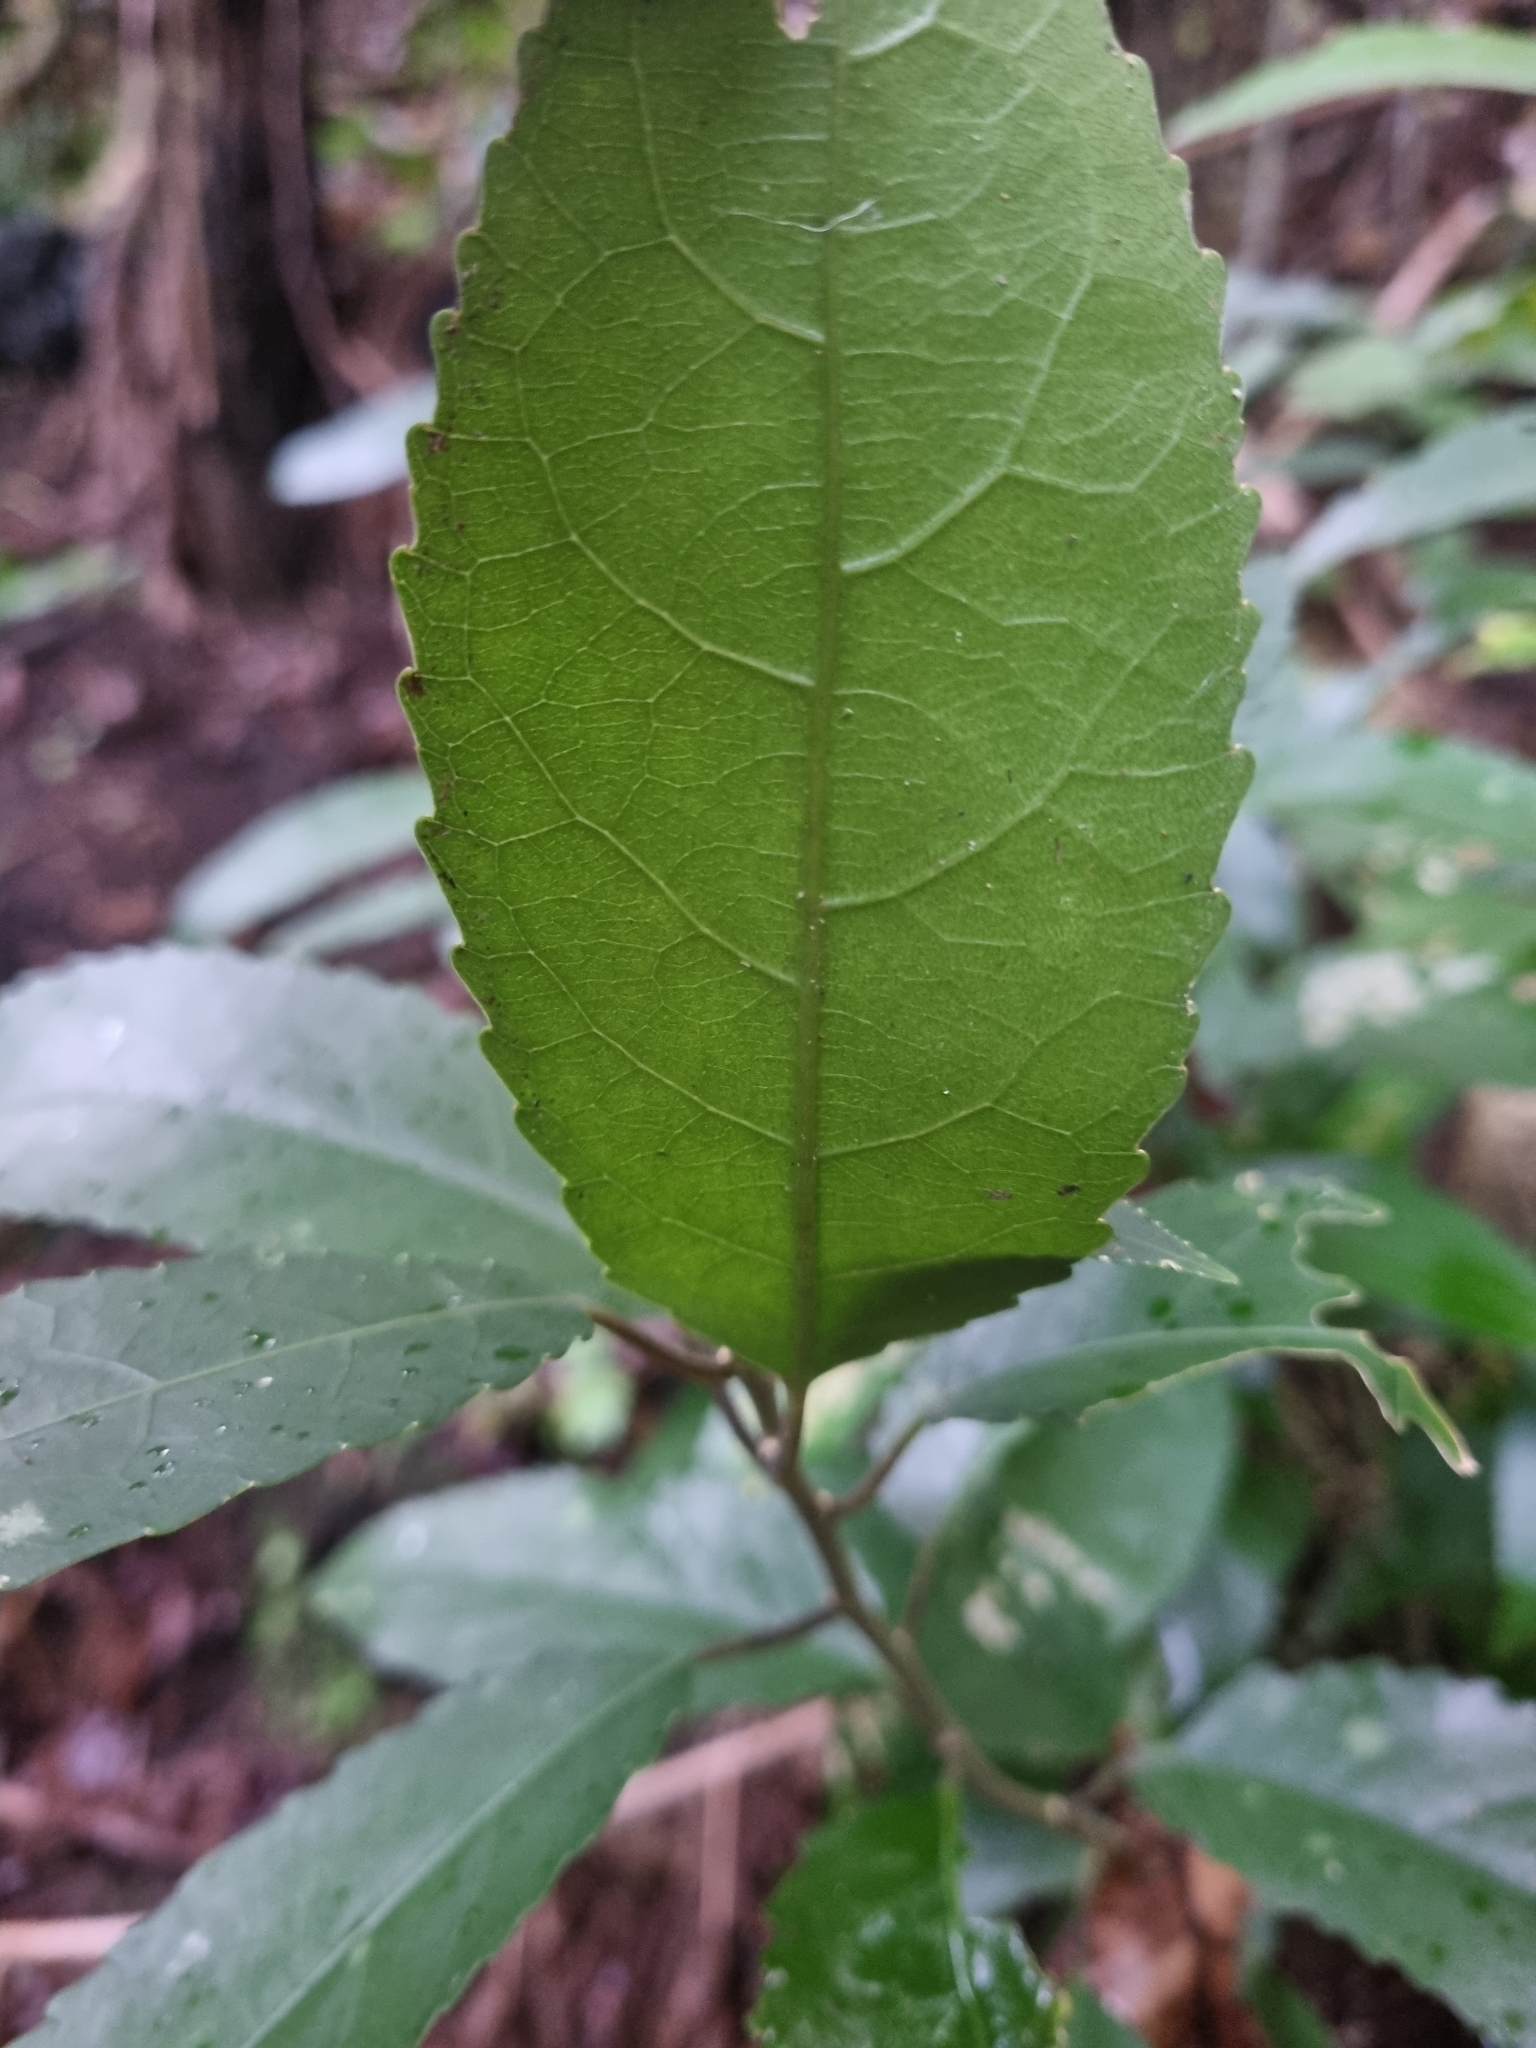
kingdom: Plantae
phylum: Tracheophyta
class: Magnoliopsida
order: Malpighiales
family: Violaceae
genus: Melicytus
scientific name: Melicytus ramiflorus
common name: Mahoe
